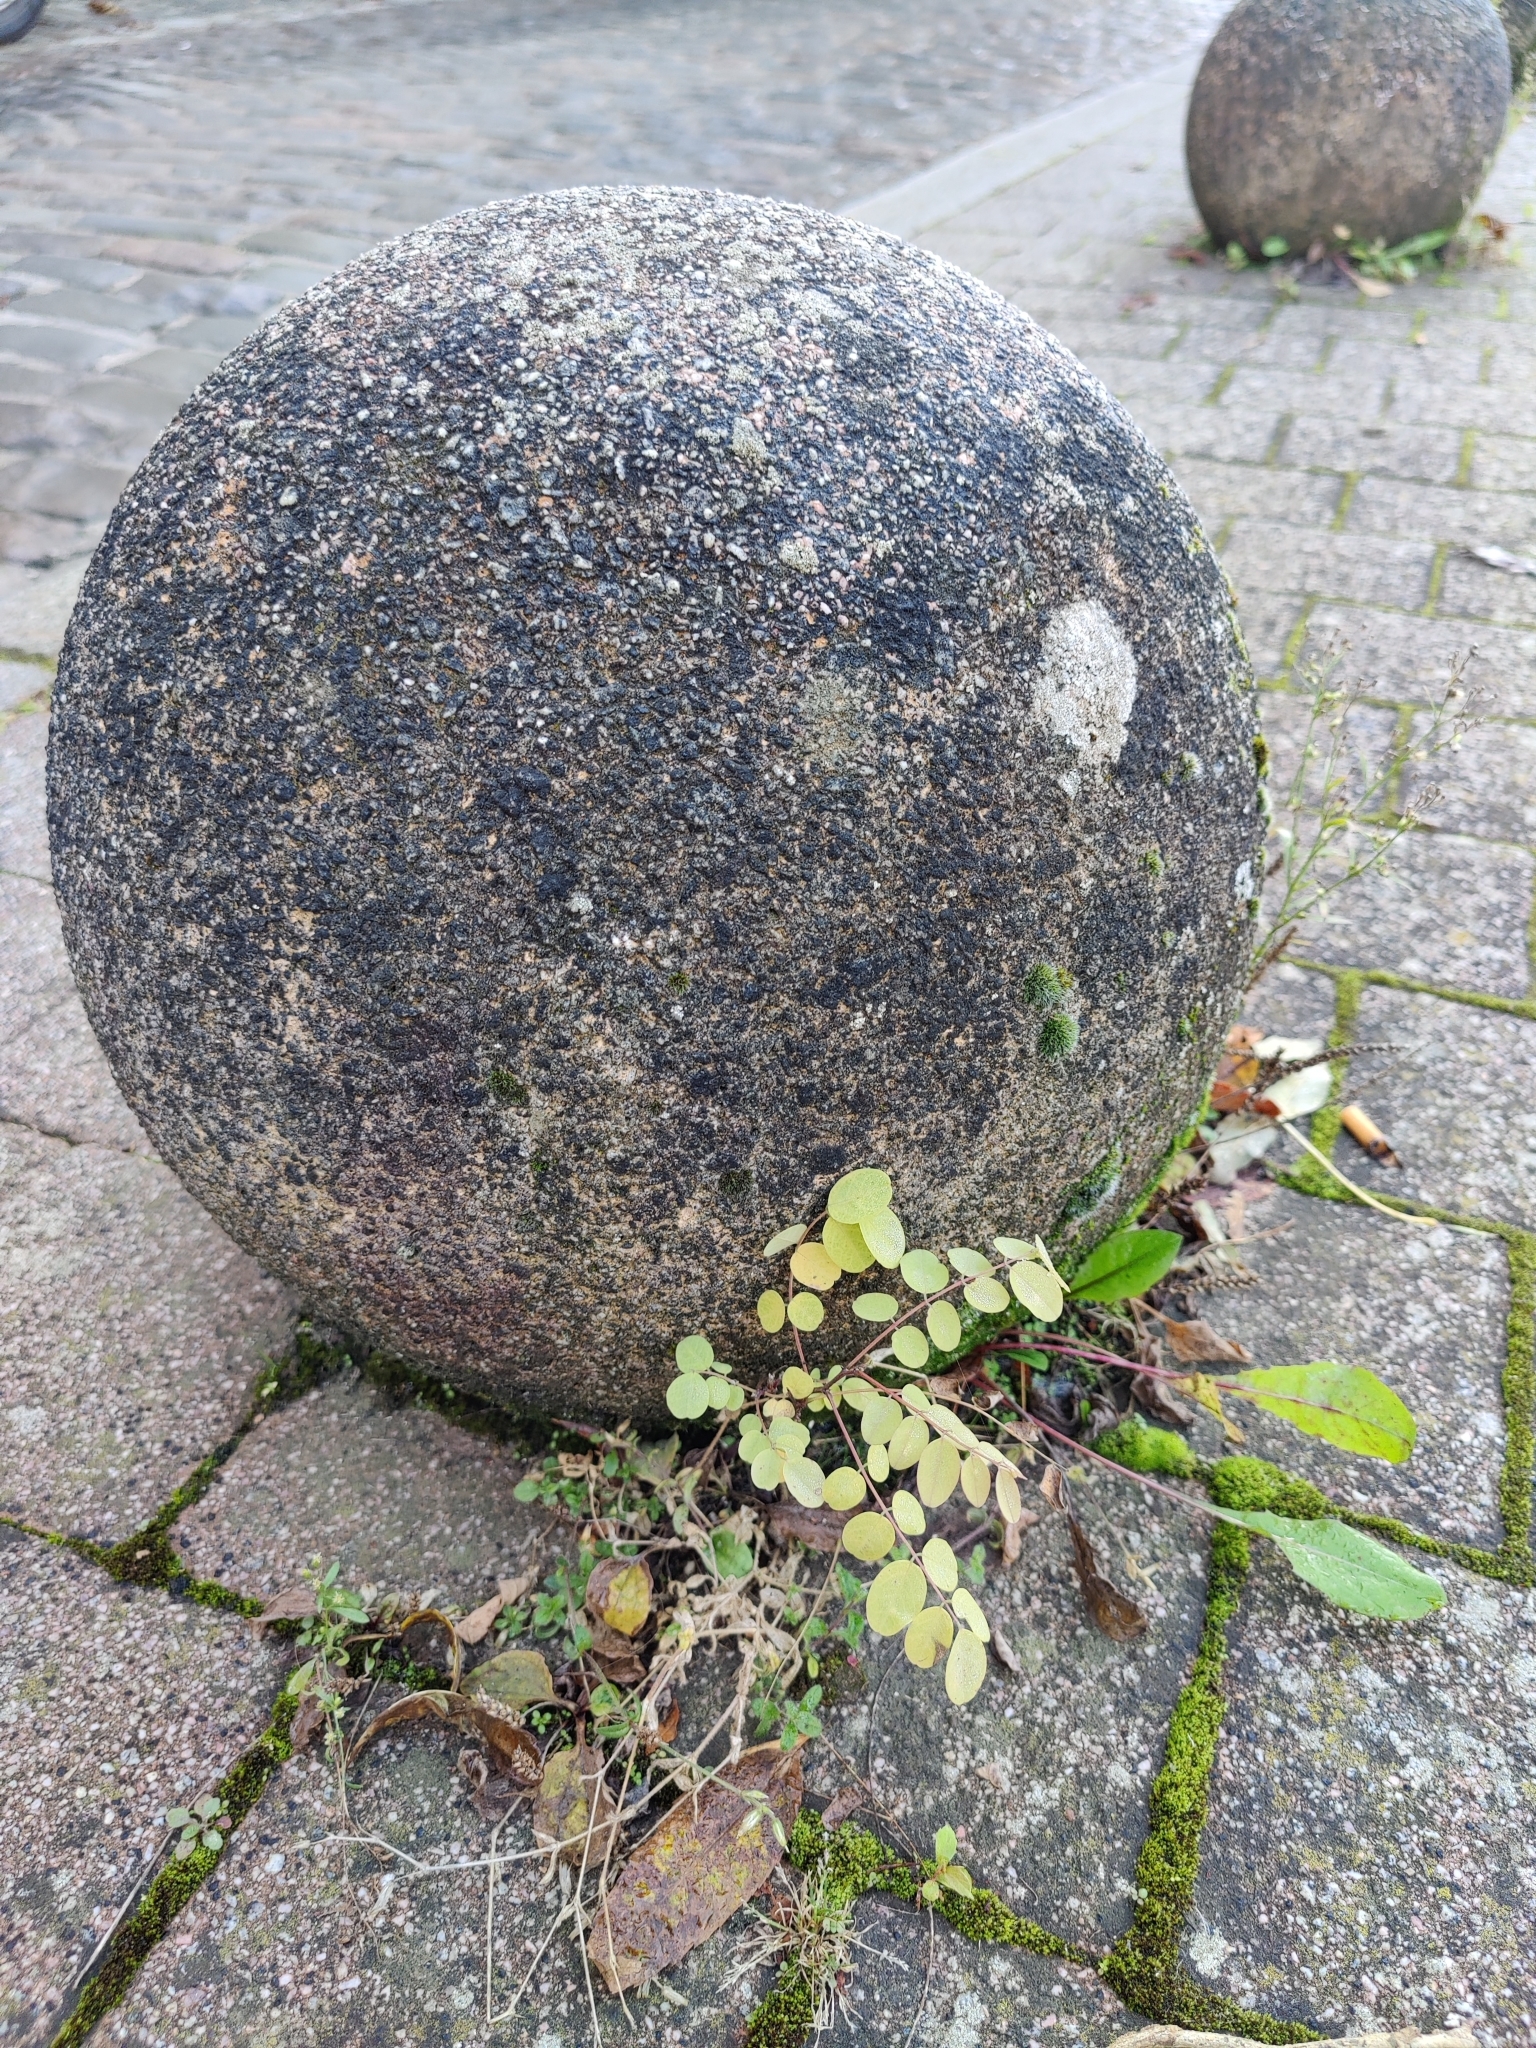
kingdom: Plantae
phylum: Tracheophyta
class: Magnoliopsida
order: Fabales
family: Fabaceae
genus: Robinia
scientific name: Robinia pseudoacacia
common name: Black locust
